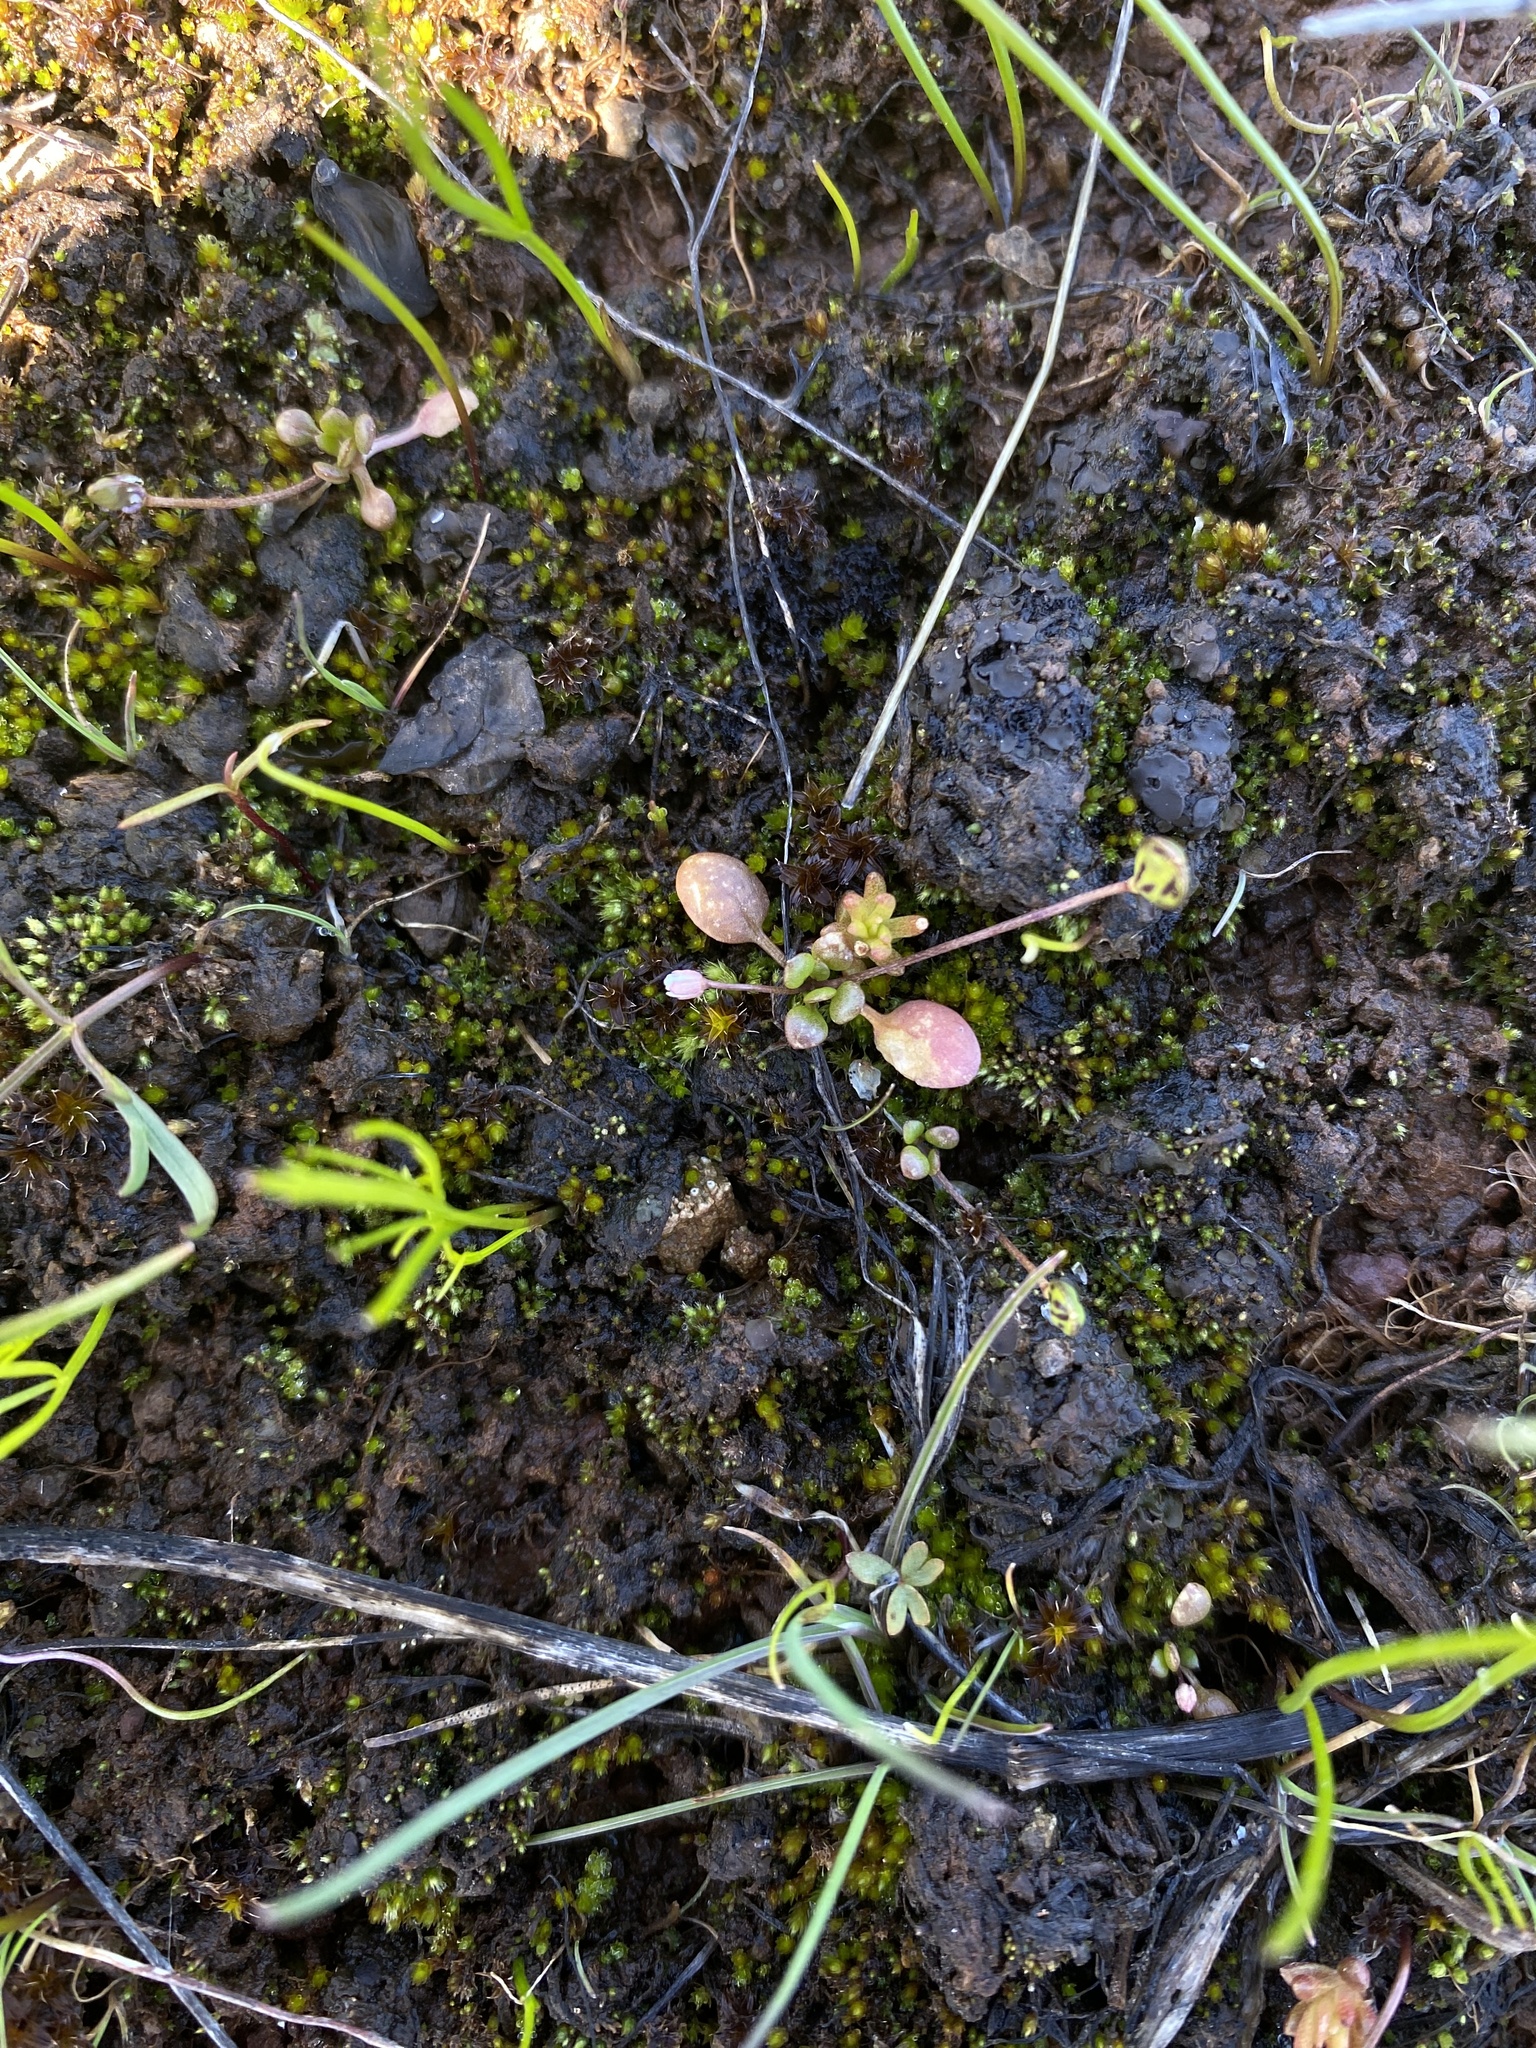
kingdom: Plantae
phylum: Tracheophyta
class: Magnoliopsida
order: Brassicales
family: Brassicaceae
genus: Idahoa
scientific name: Idahoa scapigera
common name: Scalepod
